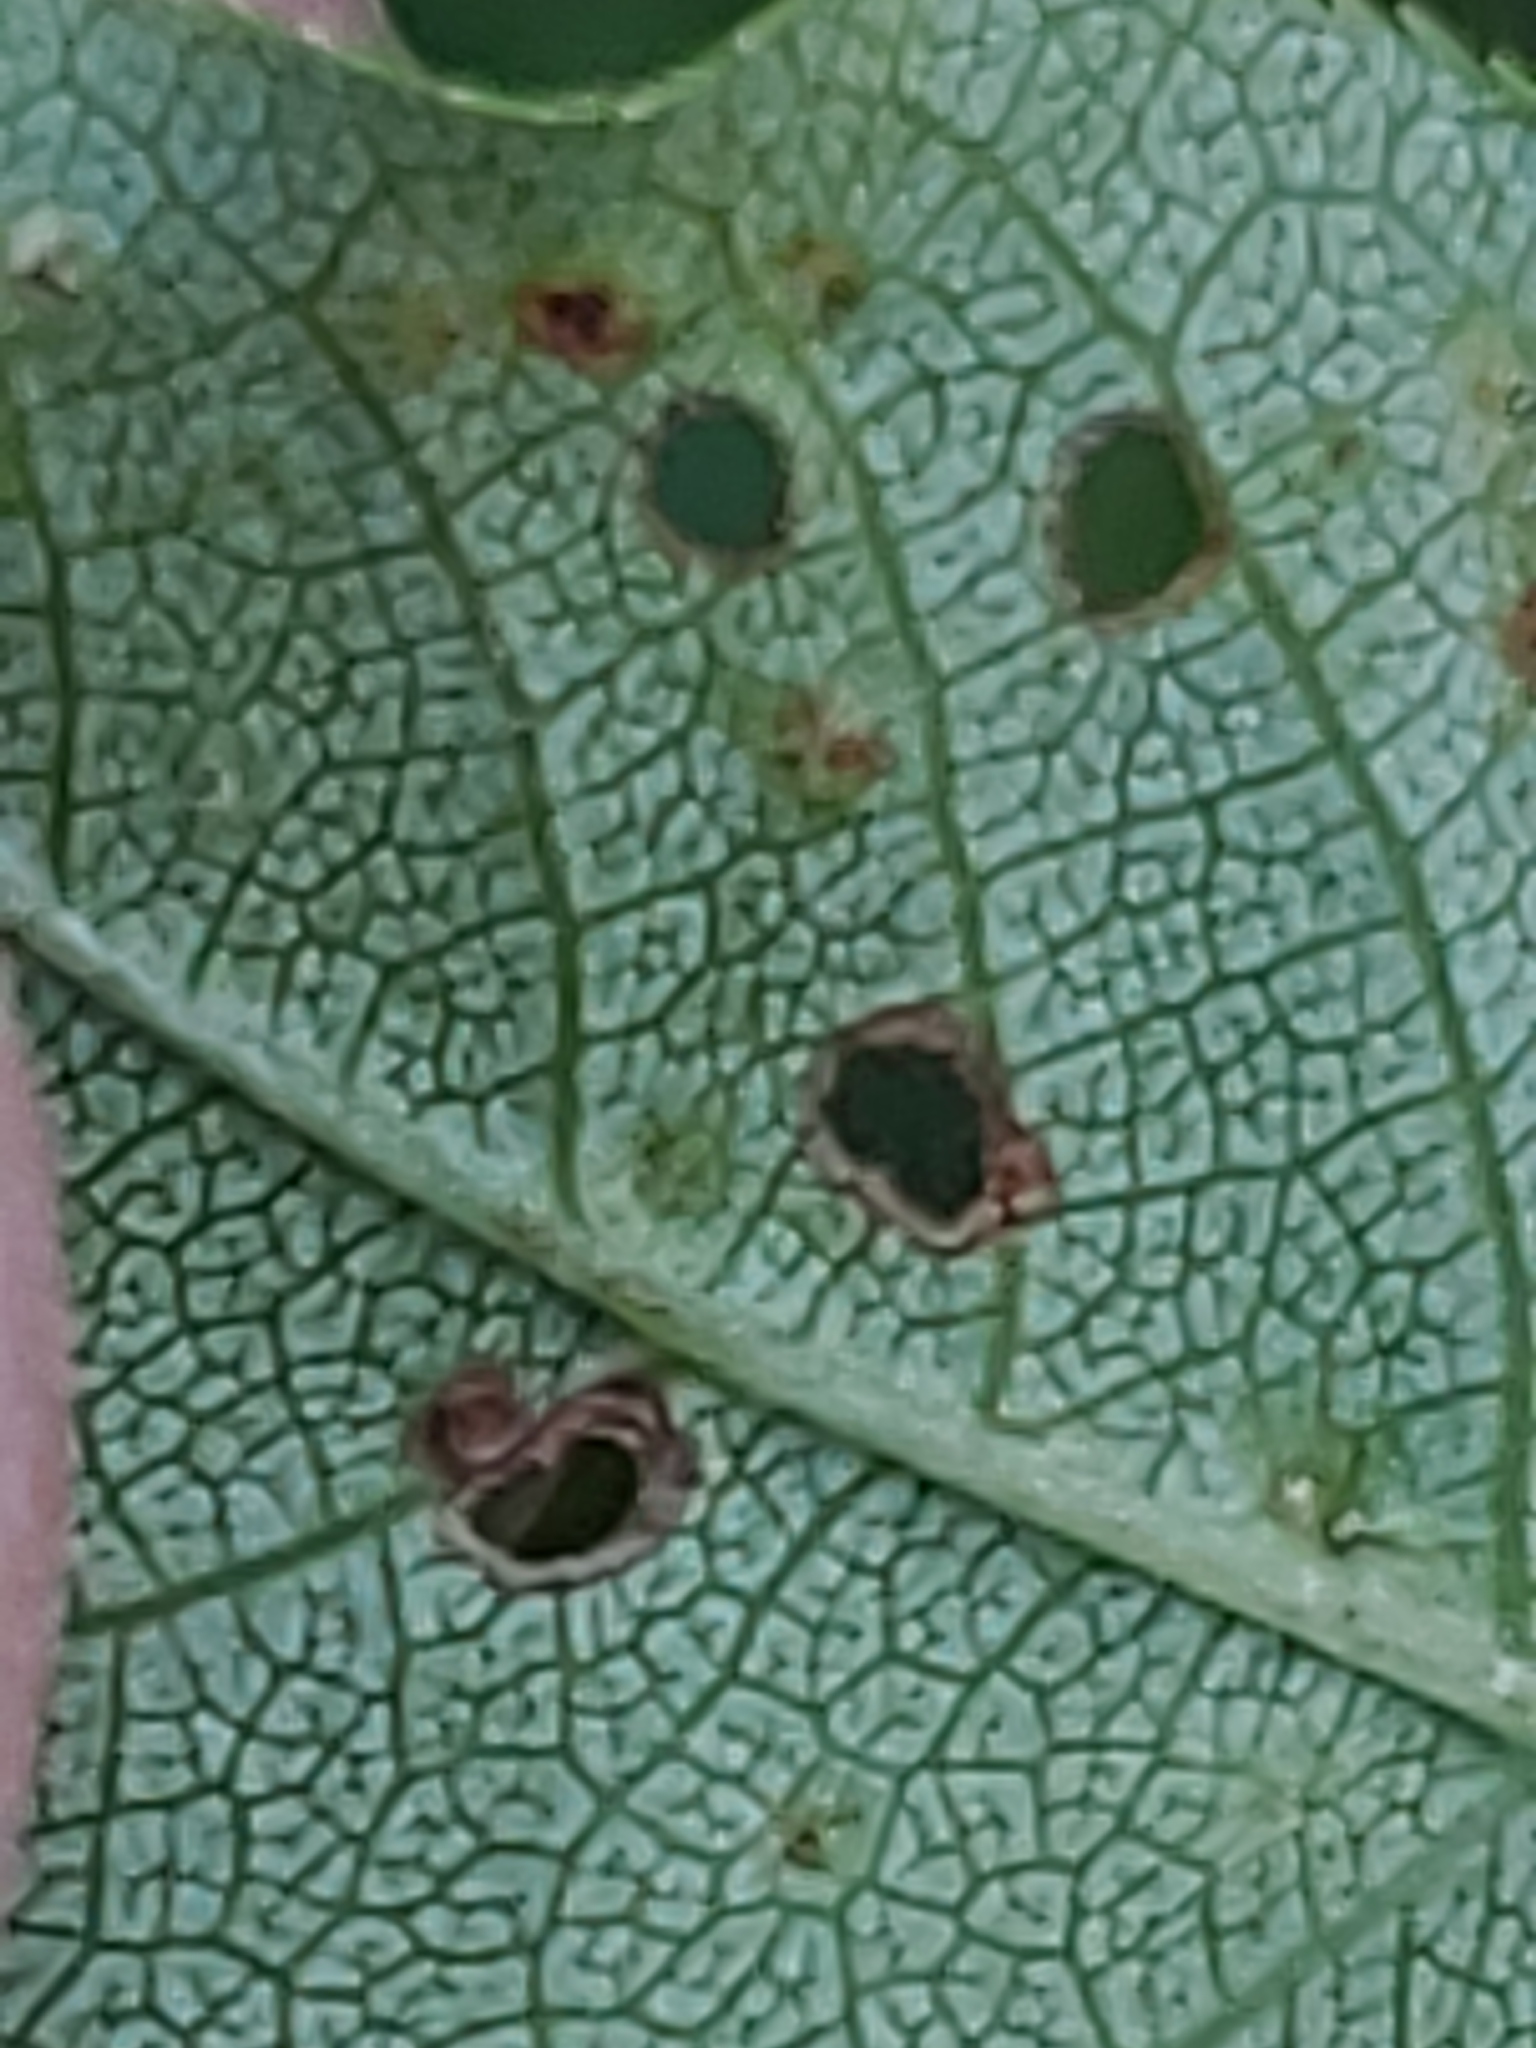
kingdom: Animalia
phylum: Arthropoda
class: Arachnida
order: Trombidiformes
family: Eriophyidae
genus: Eriophyes
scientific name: Eriophyes emarginatae
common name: Plum leaf gall mite
